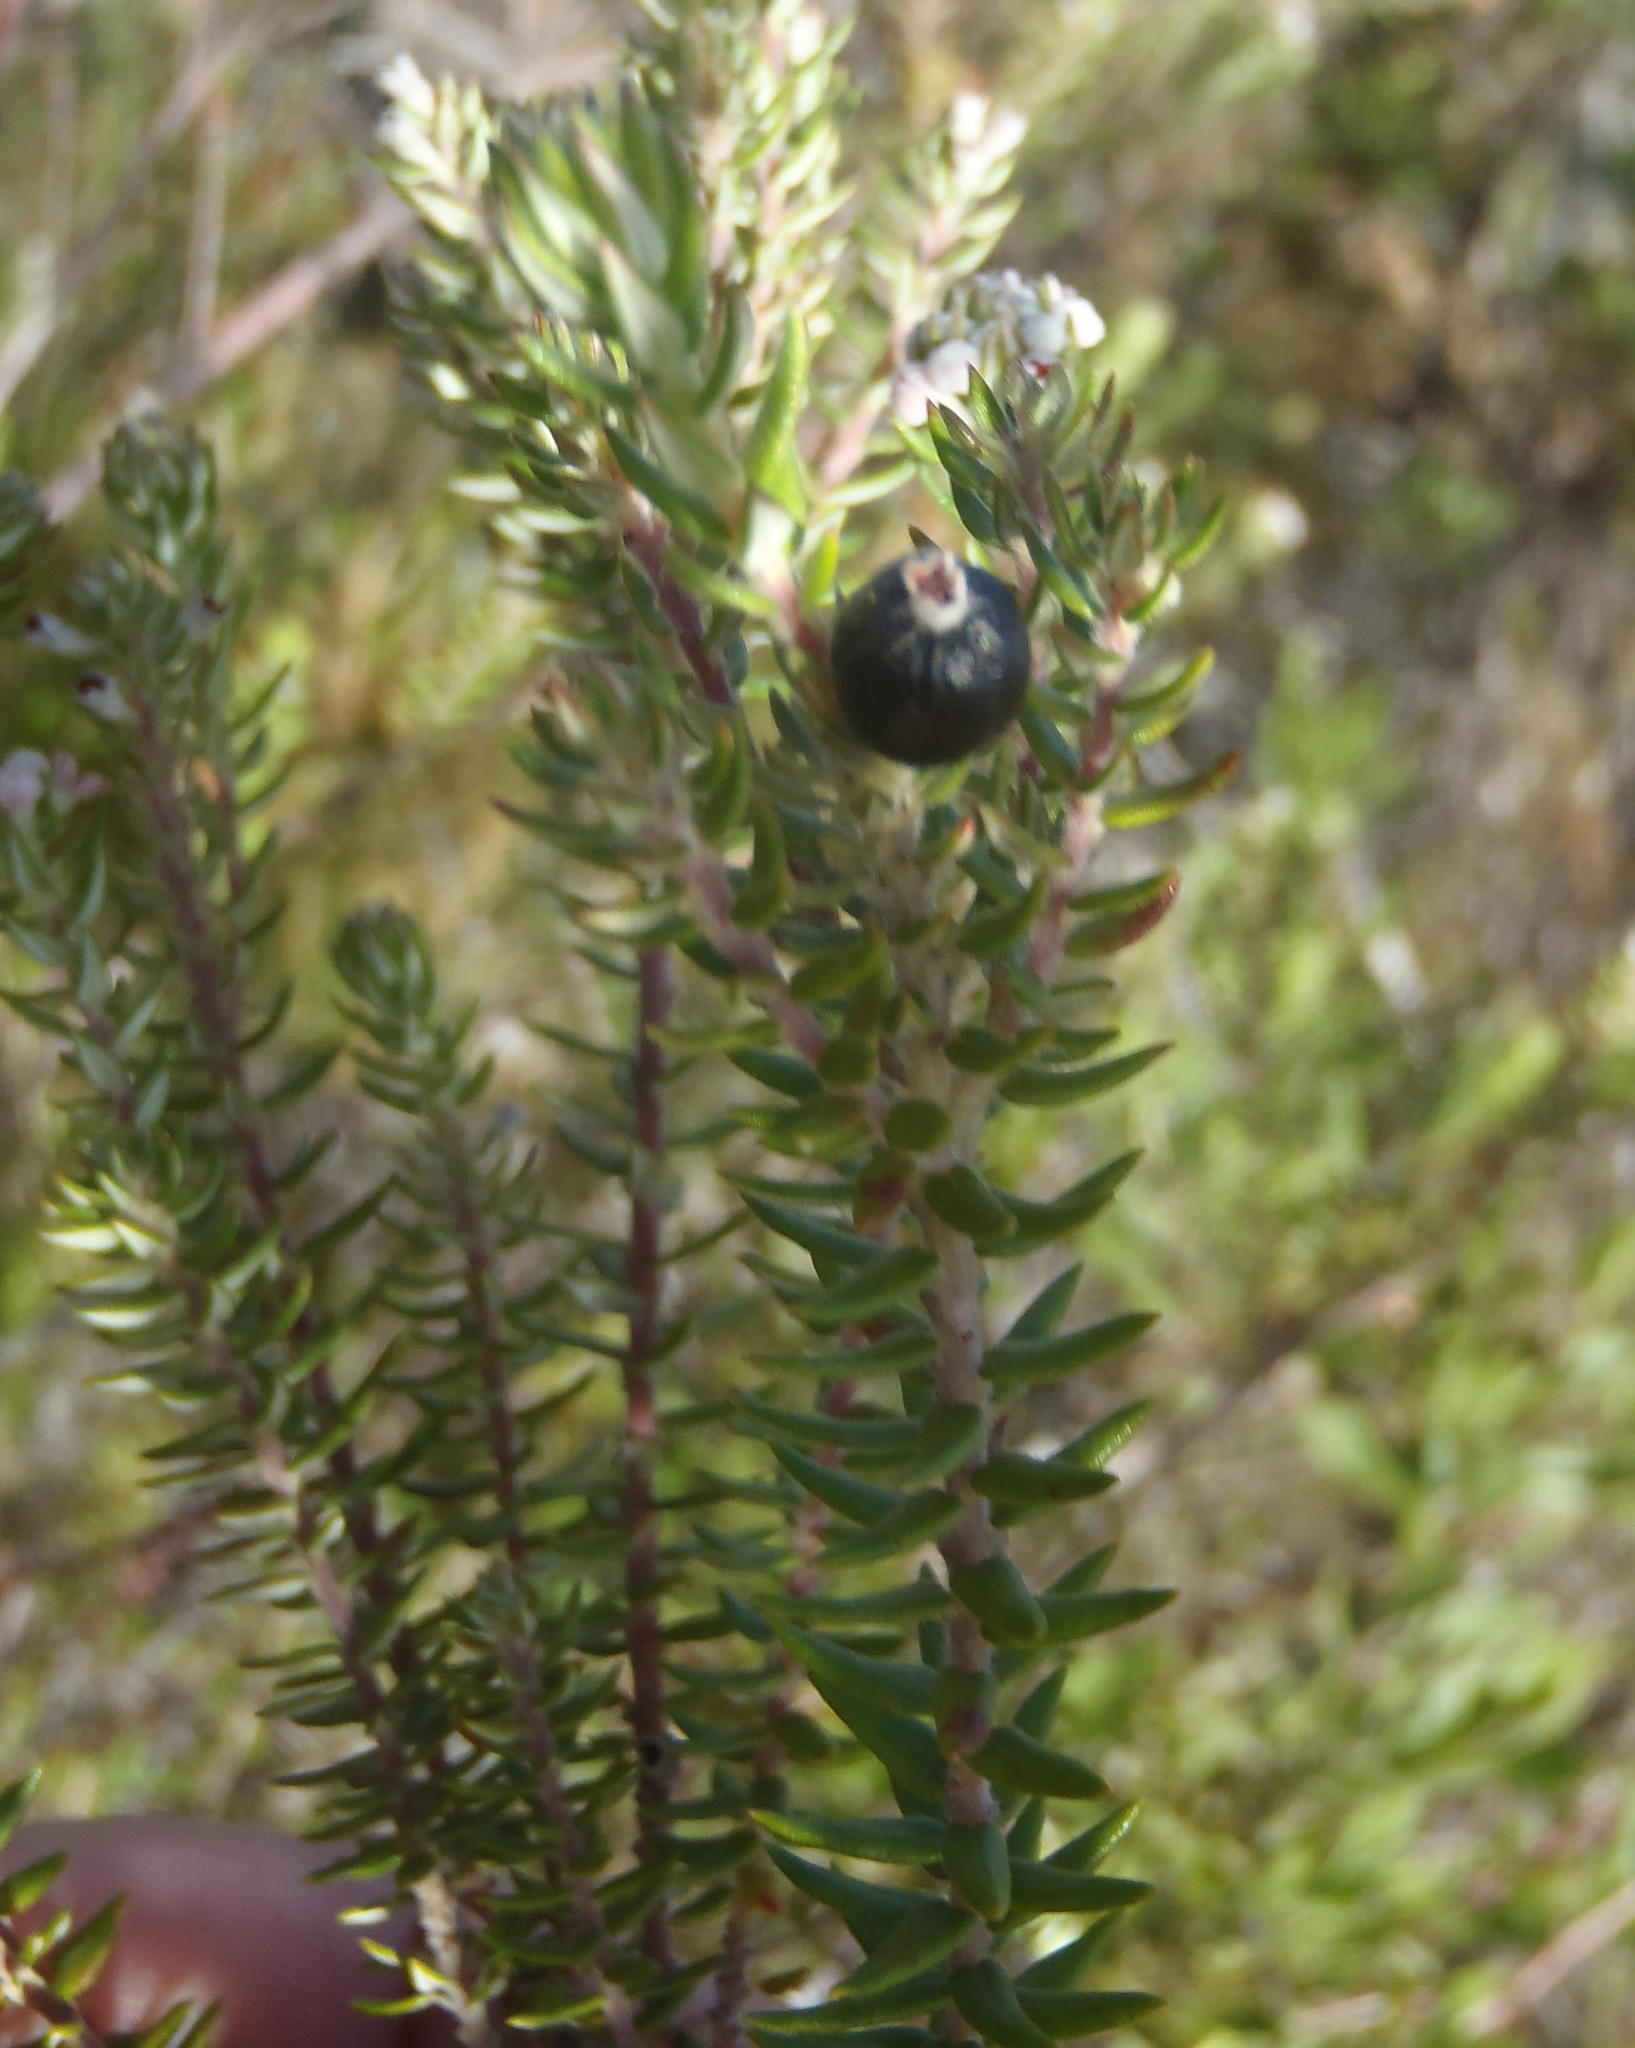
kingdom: Plantae
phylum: Tracheophyta
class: Magnoliopsida
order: Rosales
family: Rhamnaceae
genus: Phylica
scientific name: Phylica axillaris
